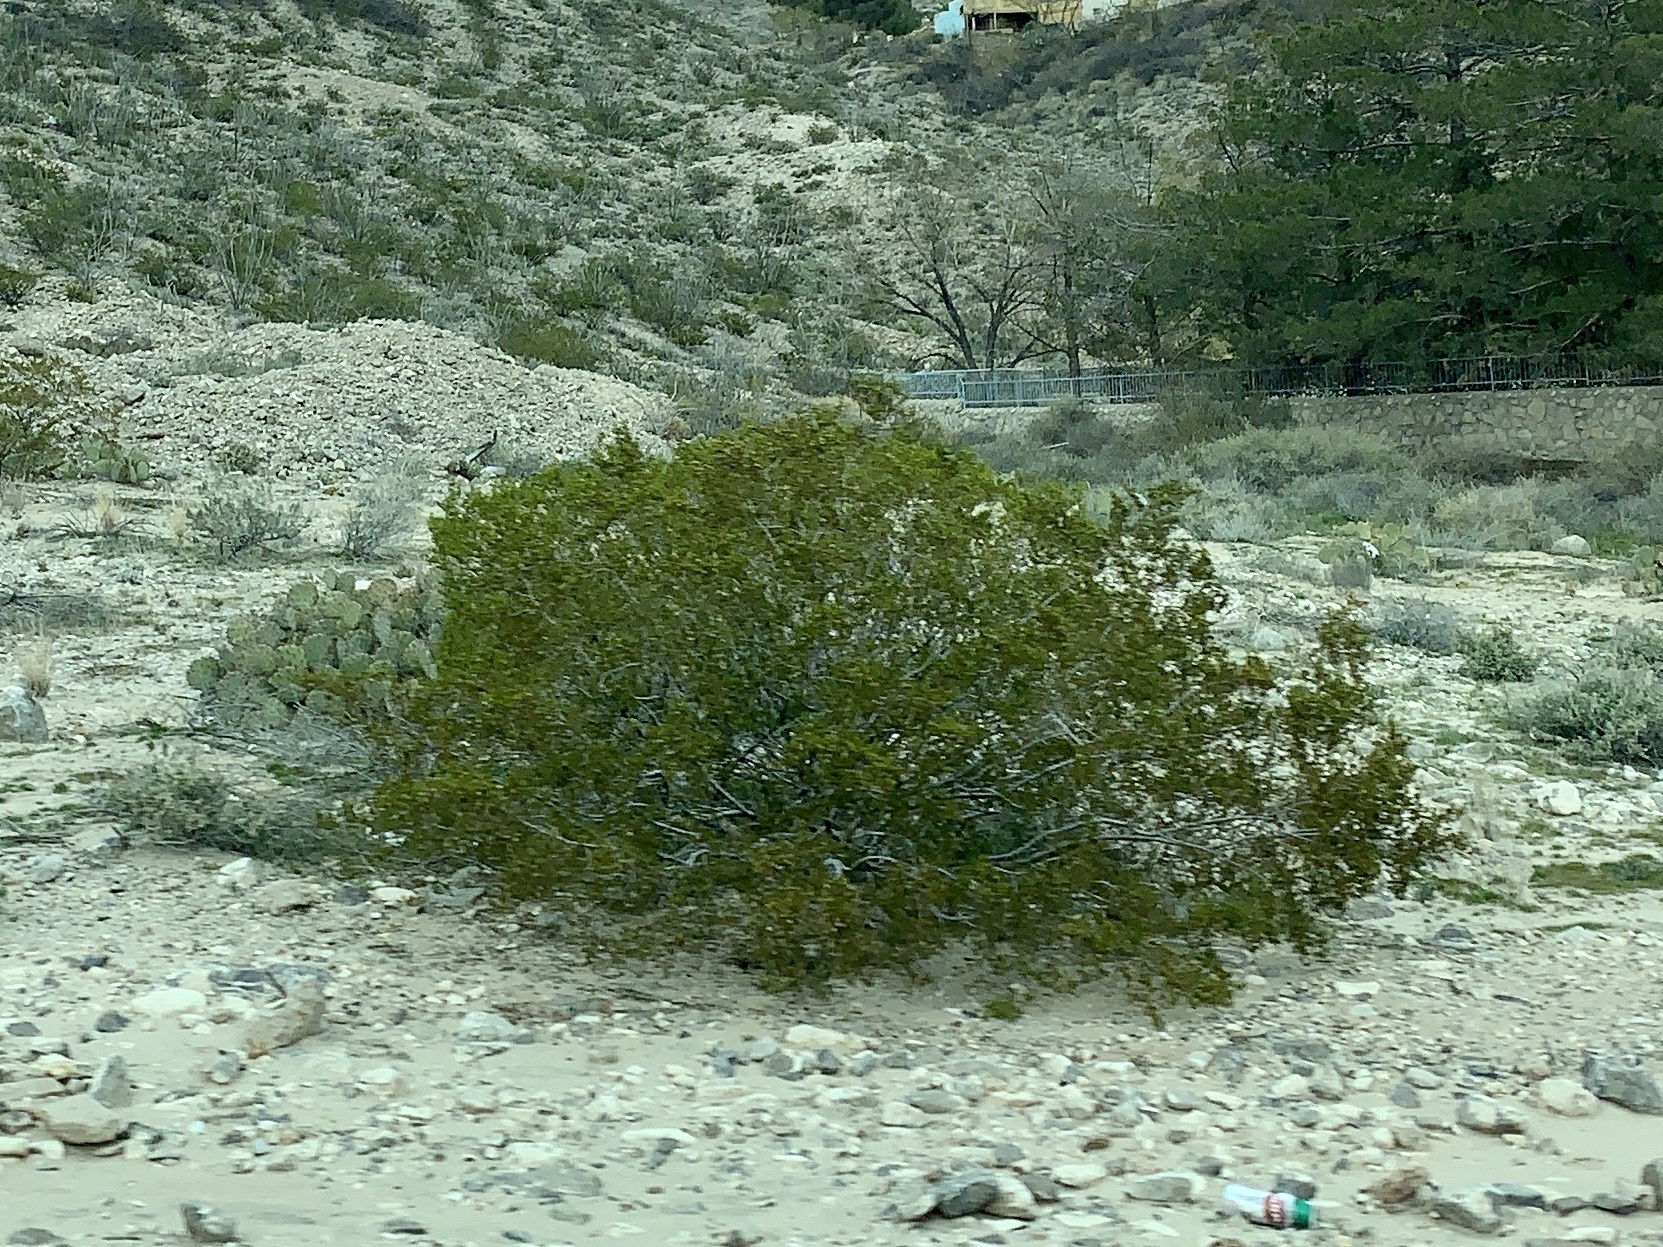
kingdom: Plantae
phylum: Tracheophyta
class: Magnoliopsida
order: Zygophyllales
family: Zygophyllaceae
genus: Larrea
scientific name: Larrea tridentata
